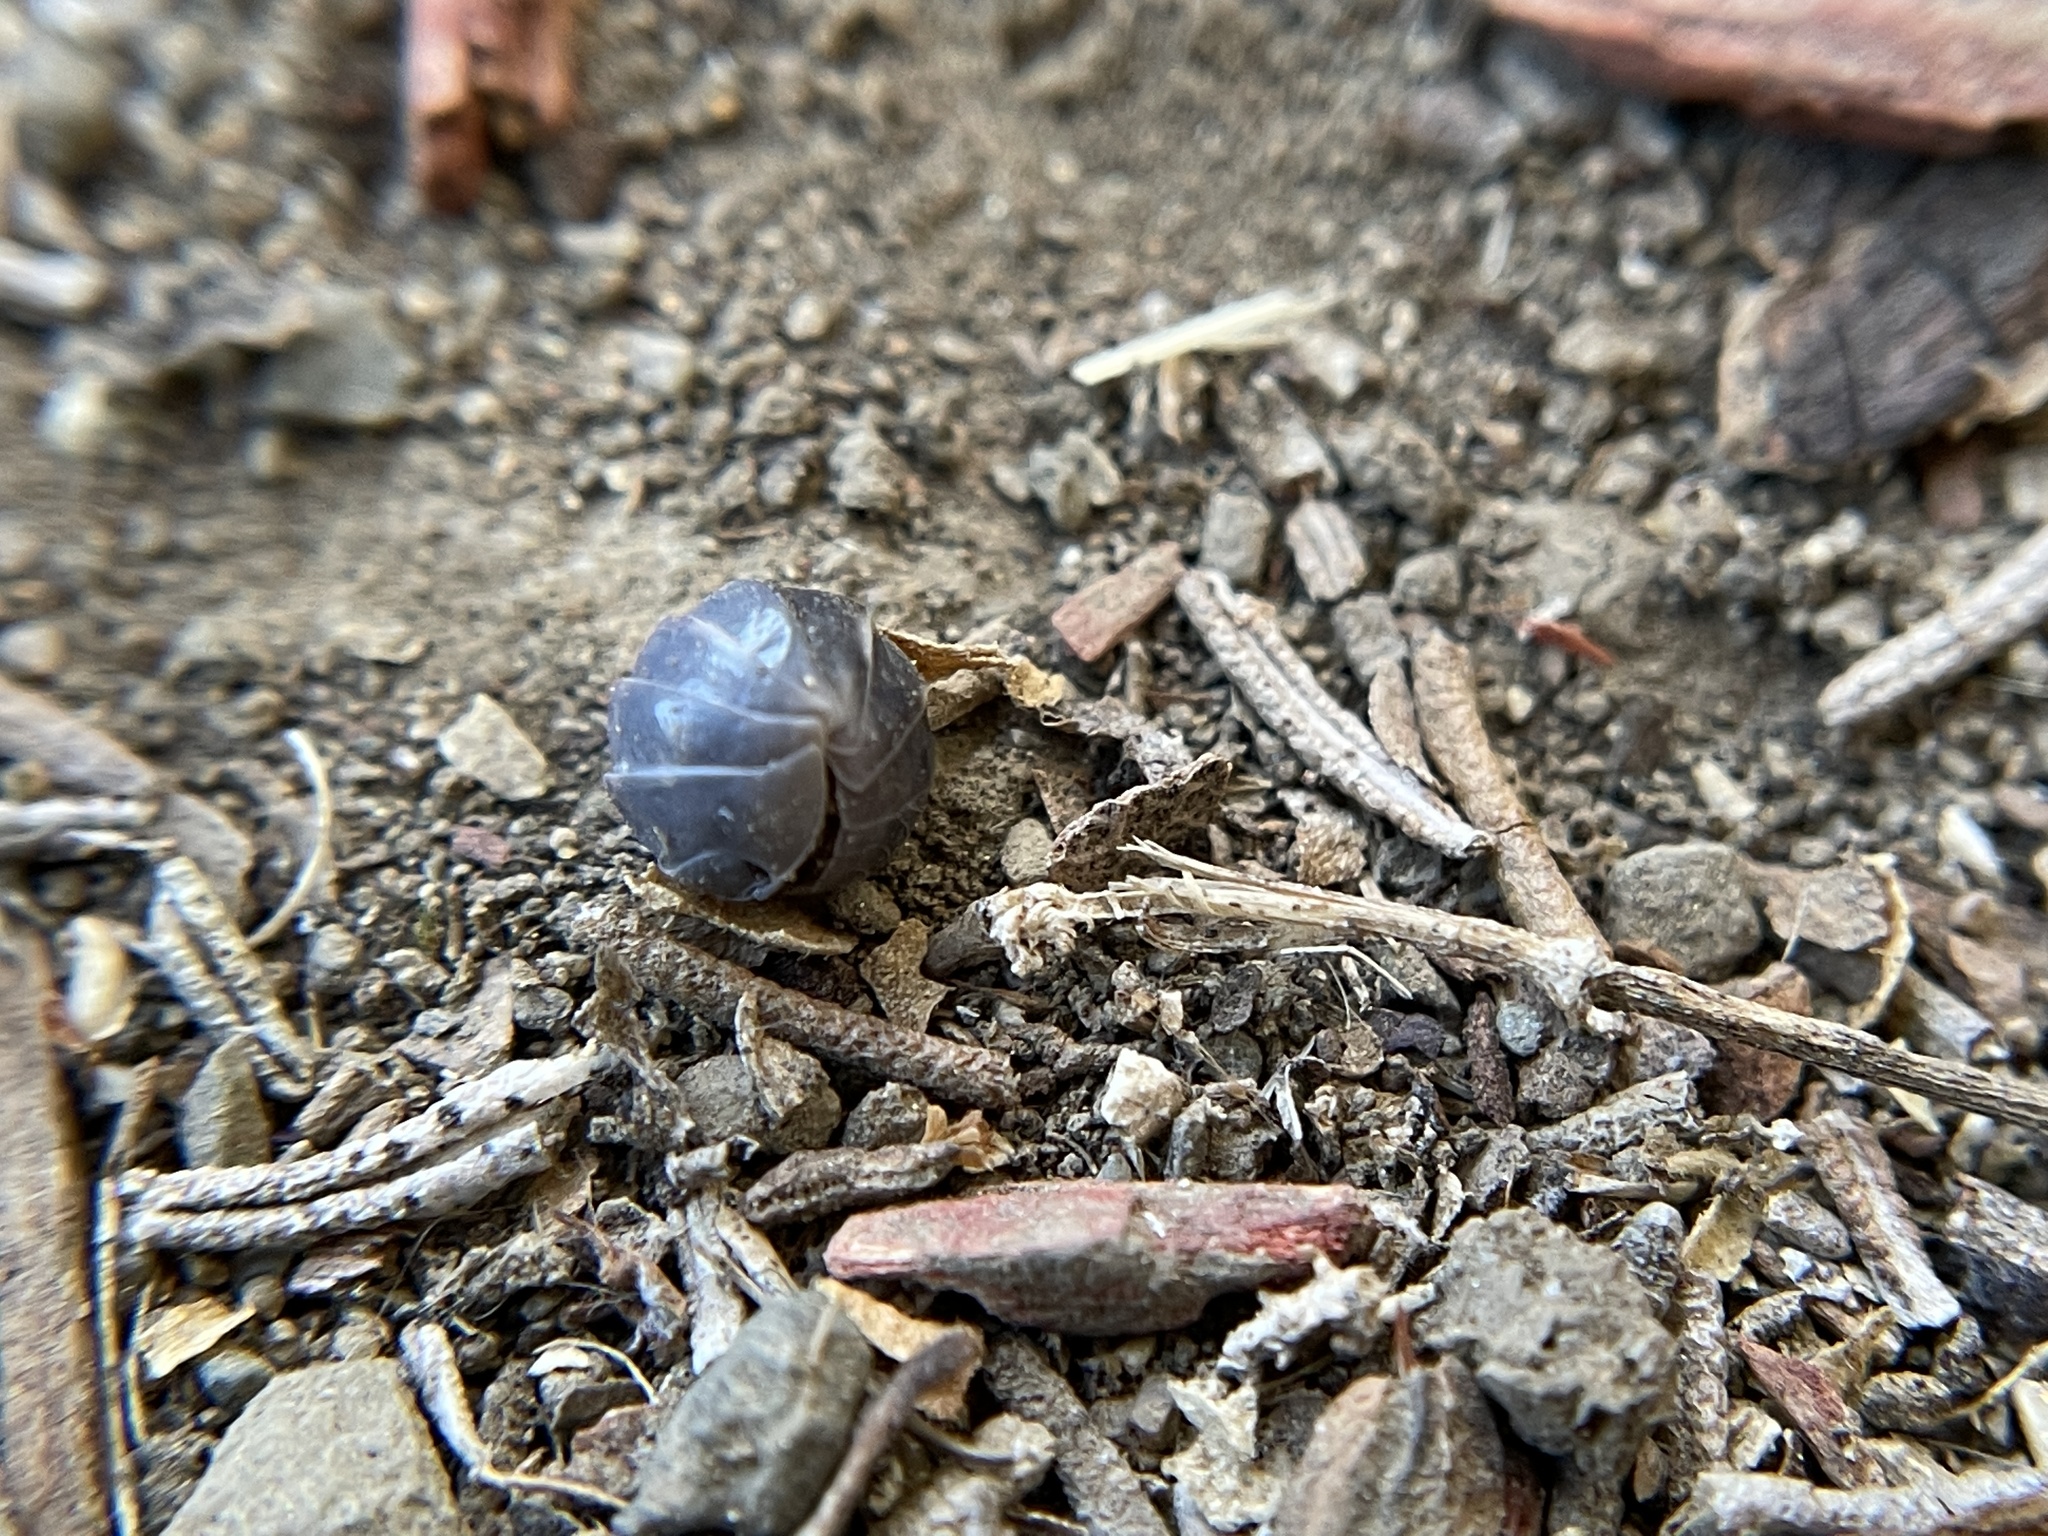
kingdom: Animalia
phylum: Arthropoda
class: Malacostraca
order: Isopoda
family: Armadillidiidae
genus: Armadillidium
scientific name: Armadillidium vulgare
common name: Common pill woodlouse
